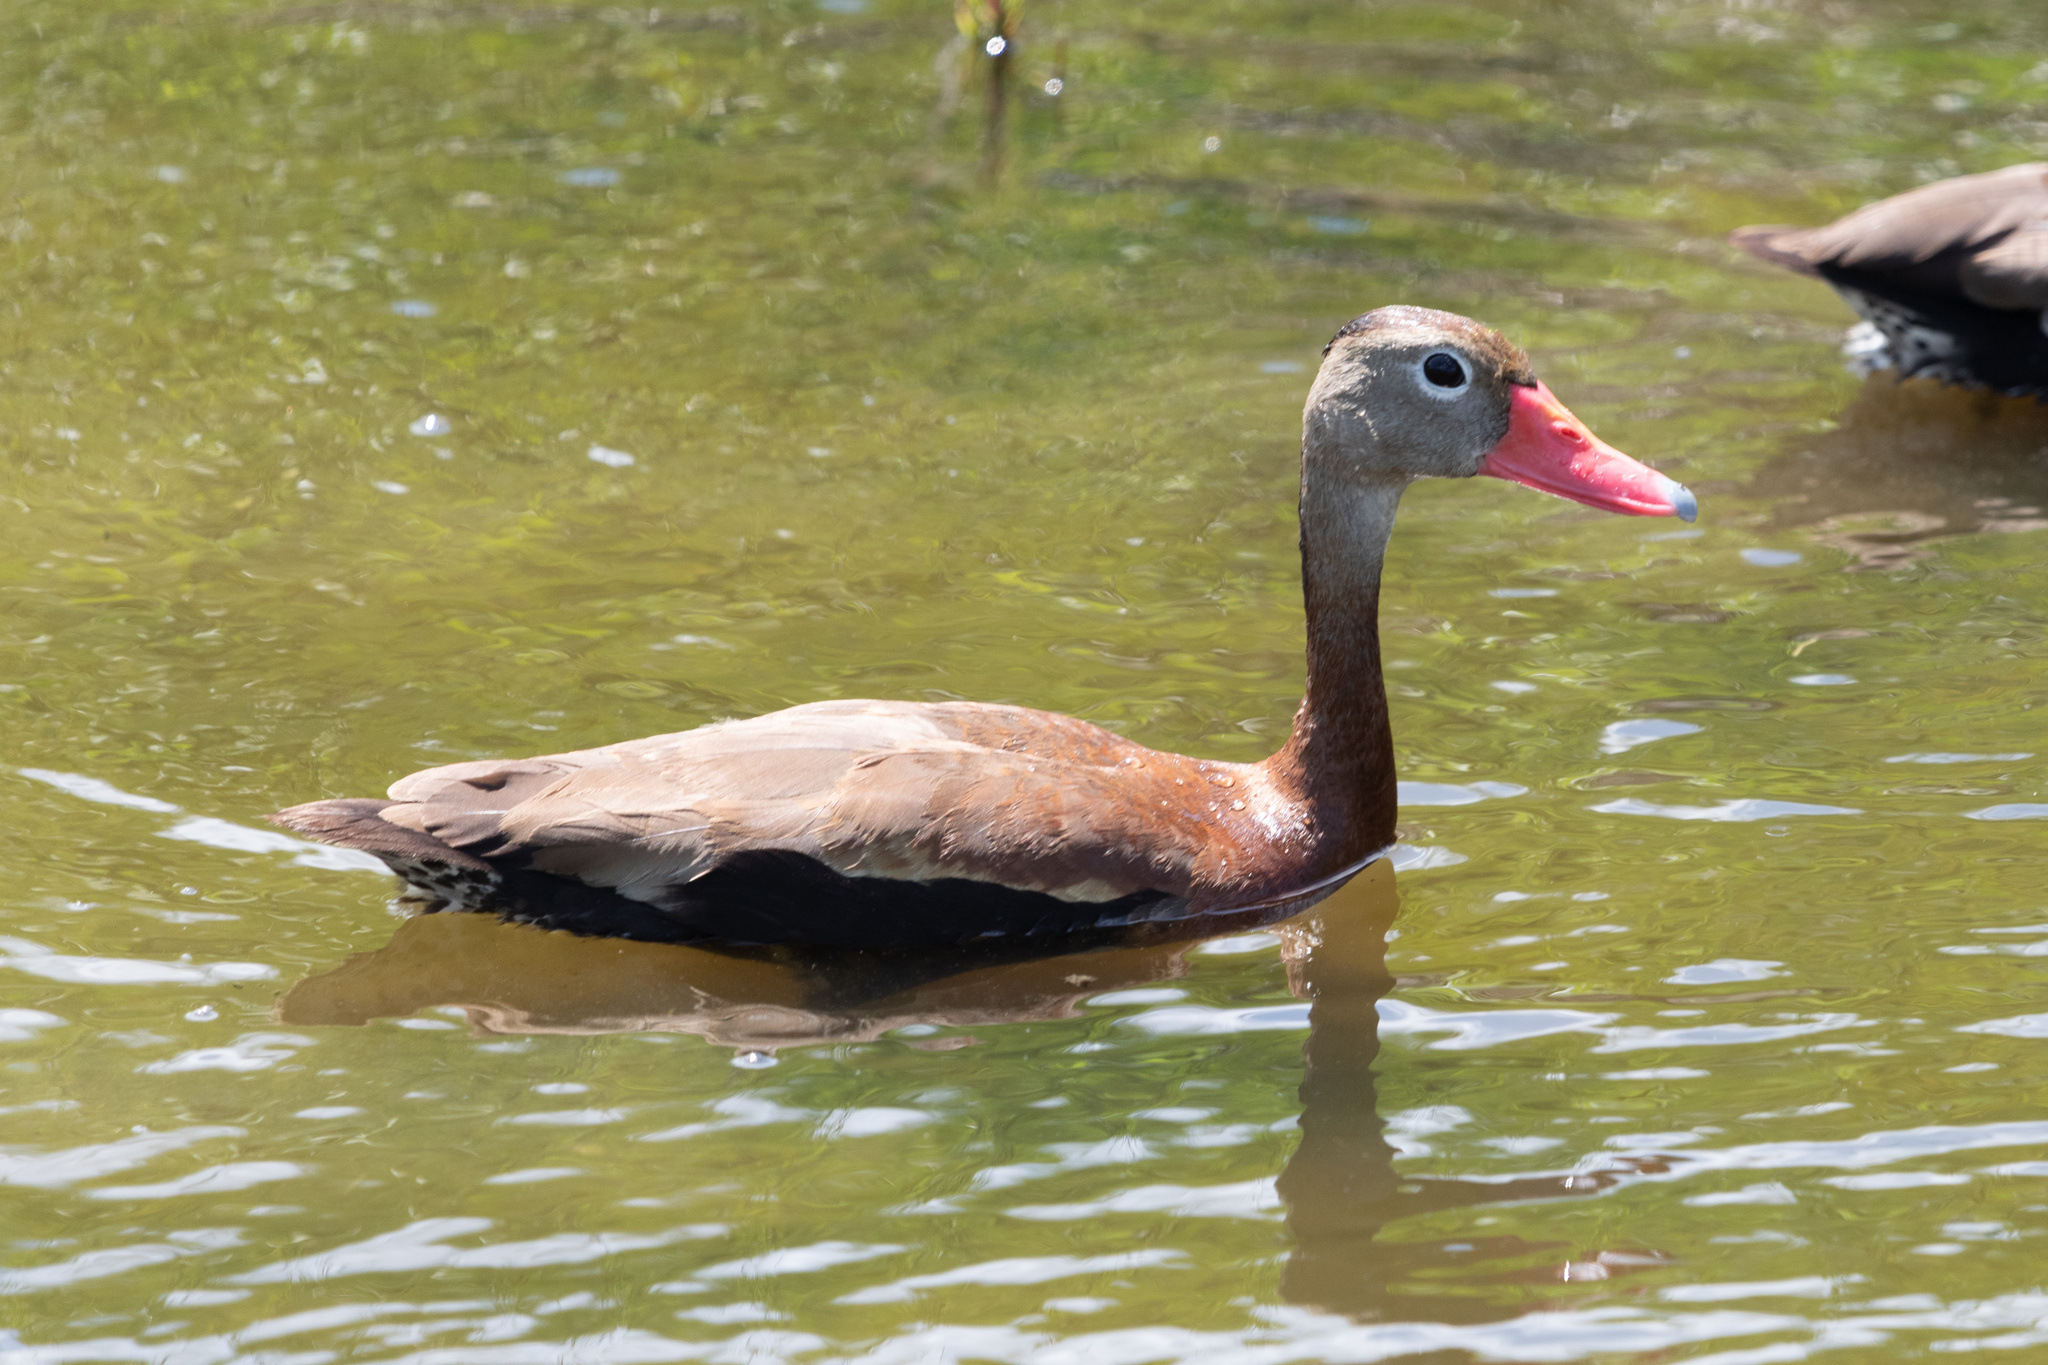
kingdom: Animalia
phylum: Chordata
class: Aves
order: Anseriformes
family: Anatidae
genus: Dendrocygna
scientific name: Dendrocygna autumnalis
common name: Black-bellied whistling duck
